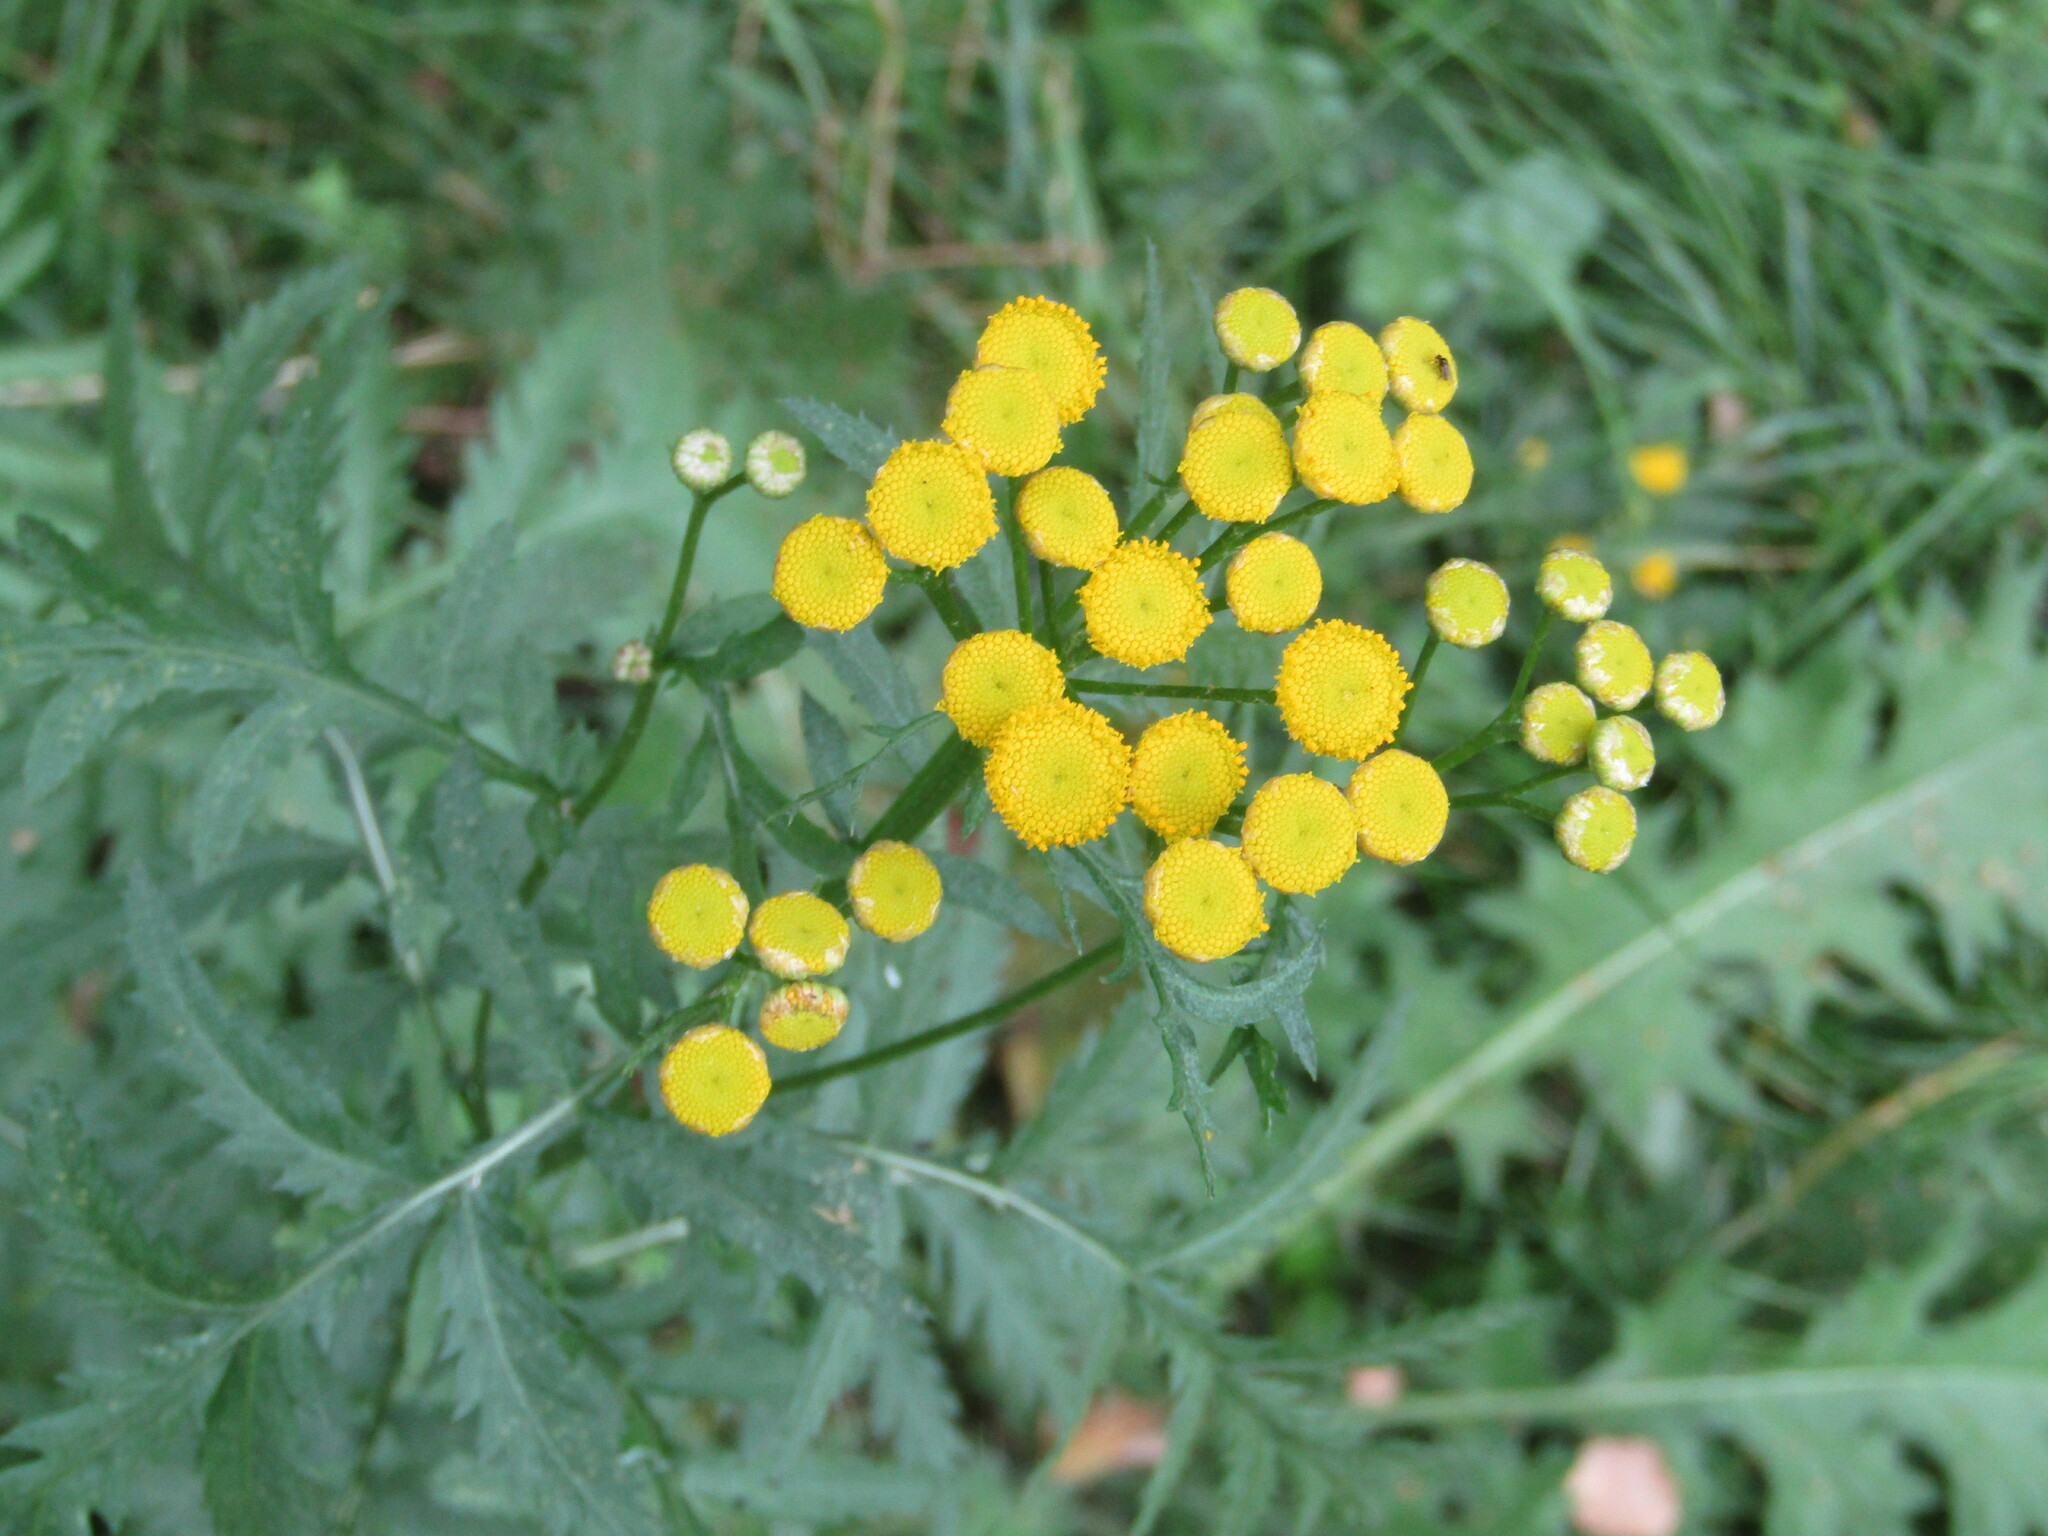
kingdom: Plantae
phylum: Tracheophyta
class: Magnoliopsida
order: Asterales
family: Asteraceae
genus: Tanacetum
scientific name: Tanacetum vulgare
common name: Common tansy
